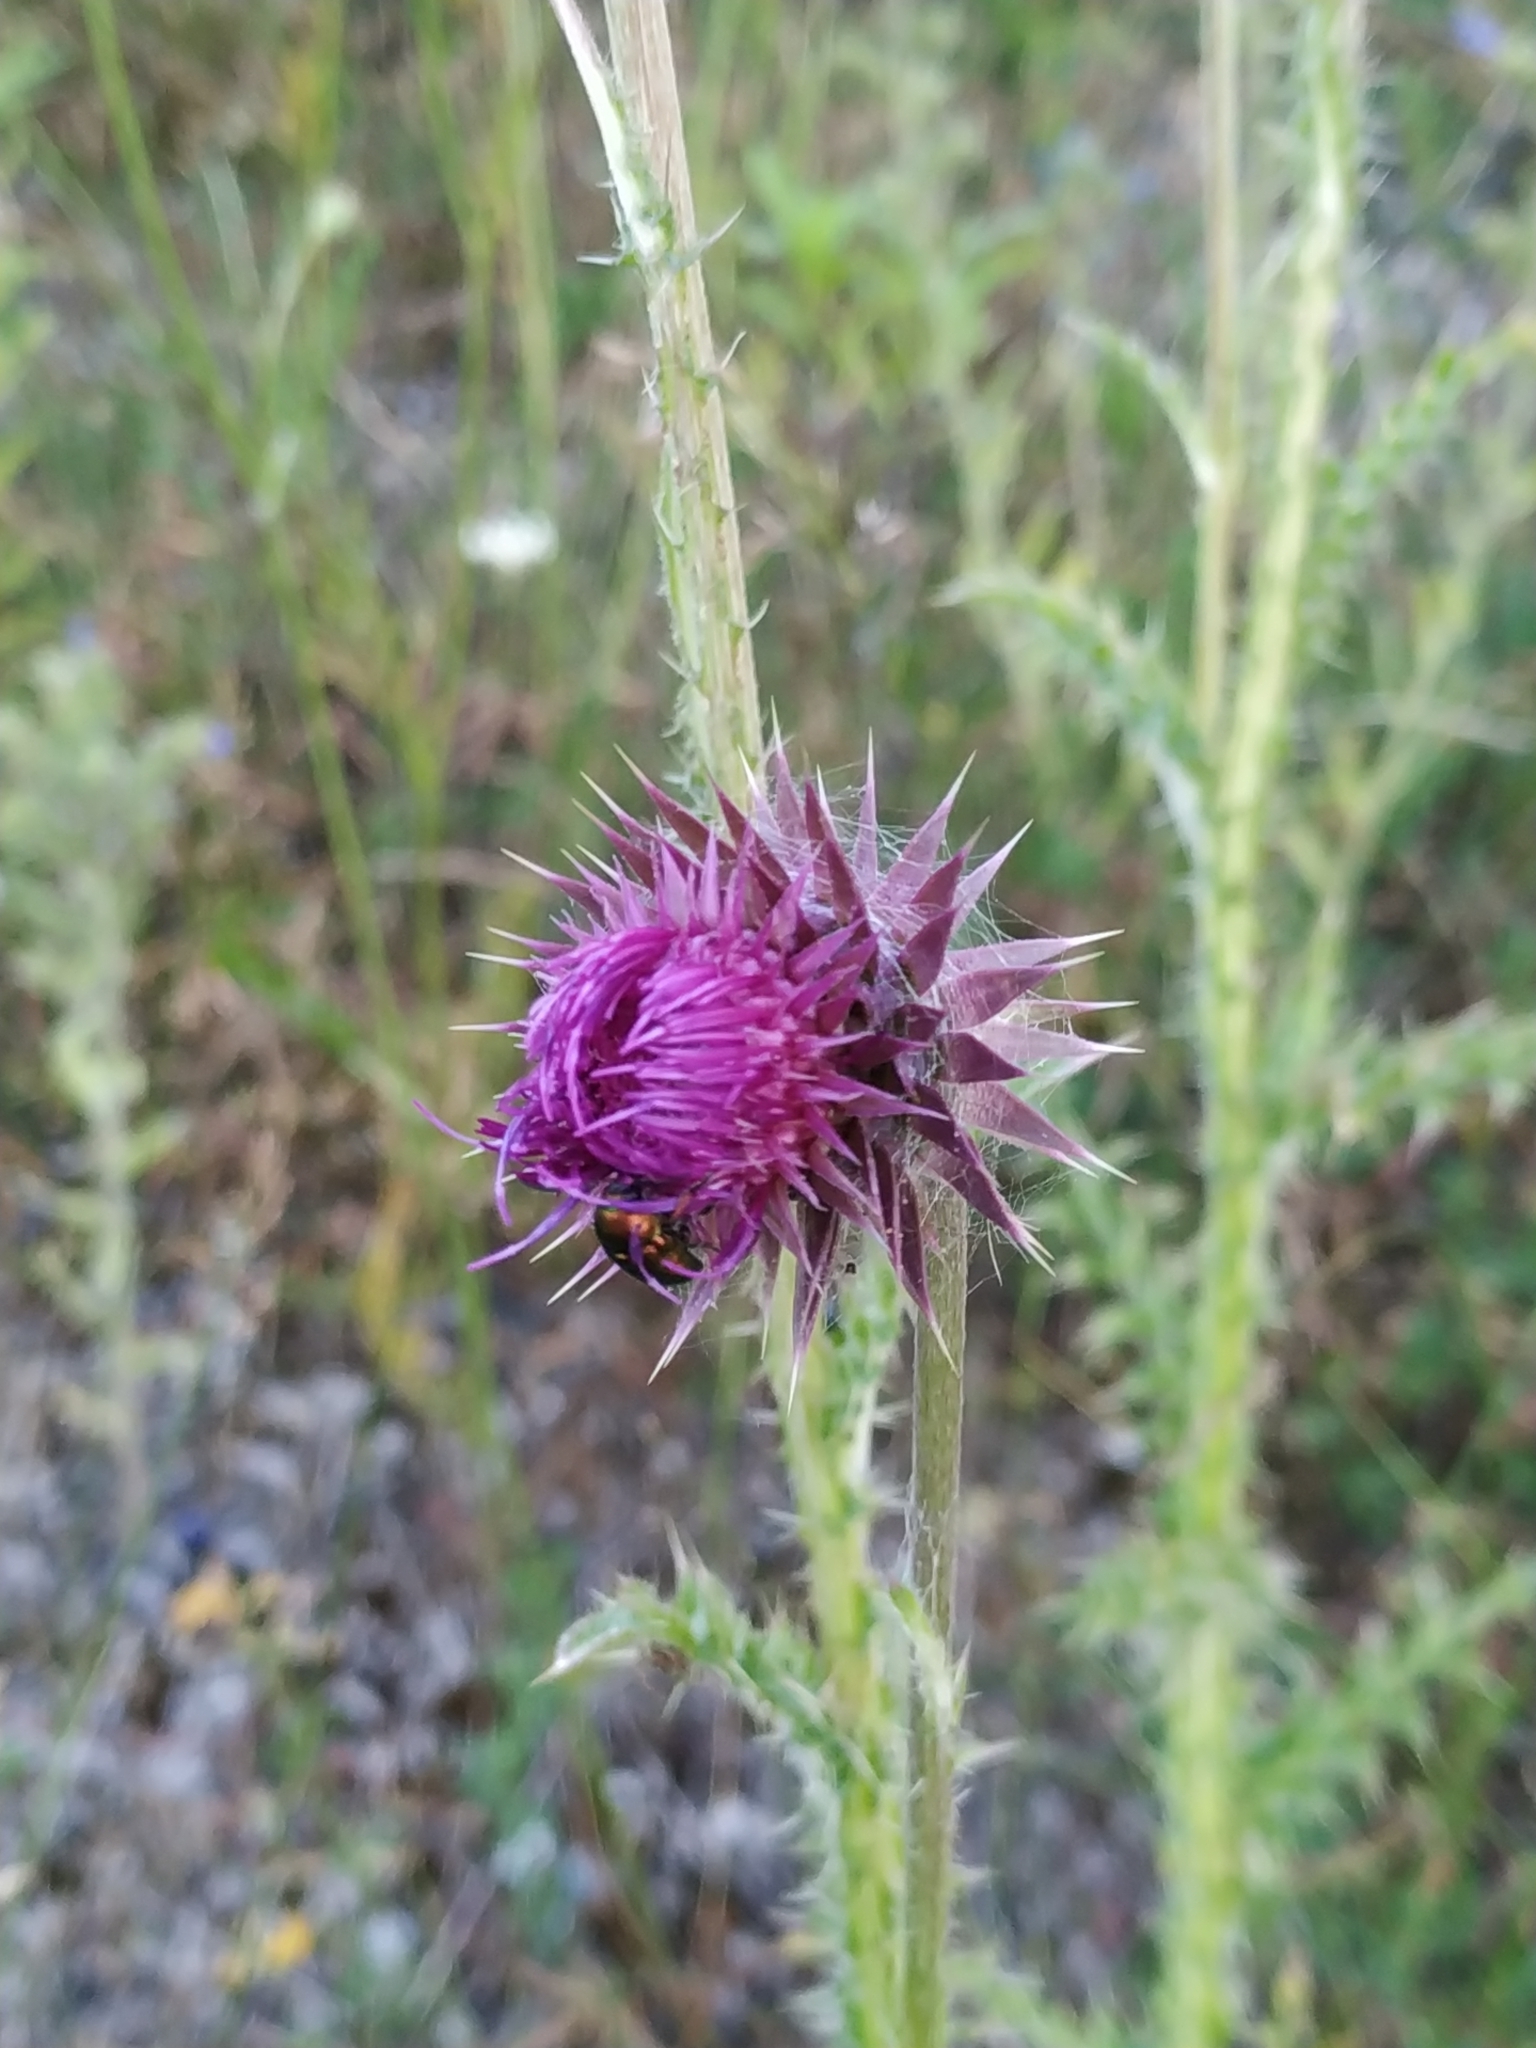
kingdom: Plantae
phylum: Tracheophyta
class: Magnoliopsida
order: Asterales
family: Asteraceae
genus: Carduus
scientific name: Carduus nutans
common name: Musk thistle
